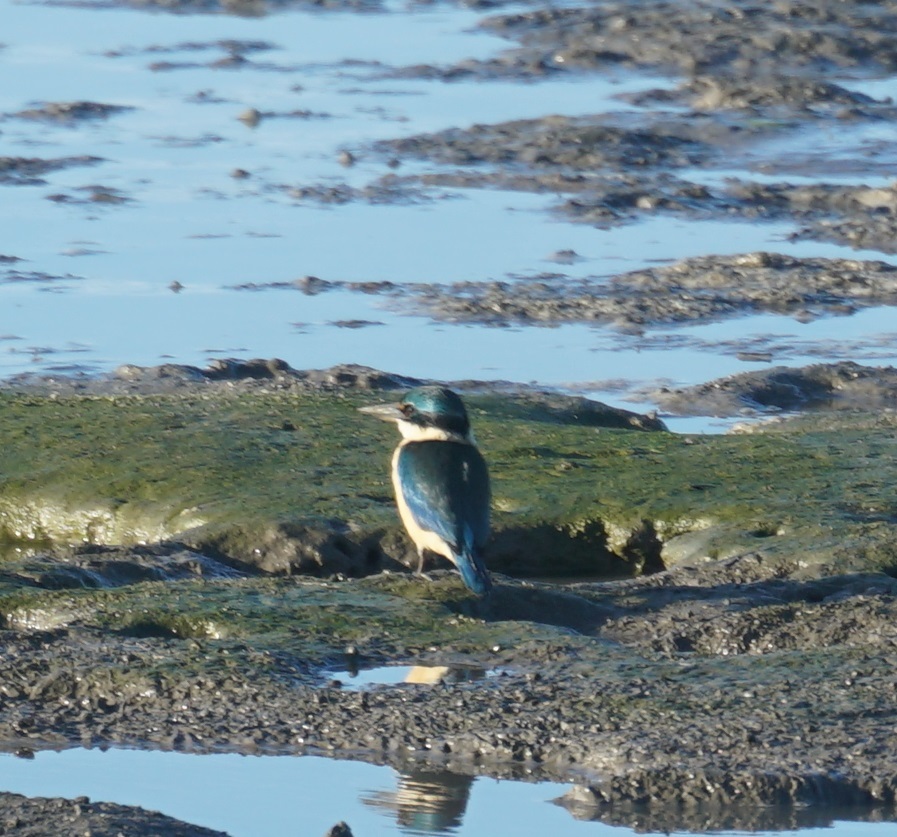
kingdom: Animalia
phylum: Chordata
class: Aves
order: Coraciiformes
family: Alcedinidae
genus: Todiramphus
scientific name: Todiramphus sanctus
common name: Sacred kingfisher
